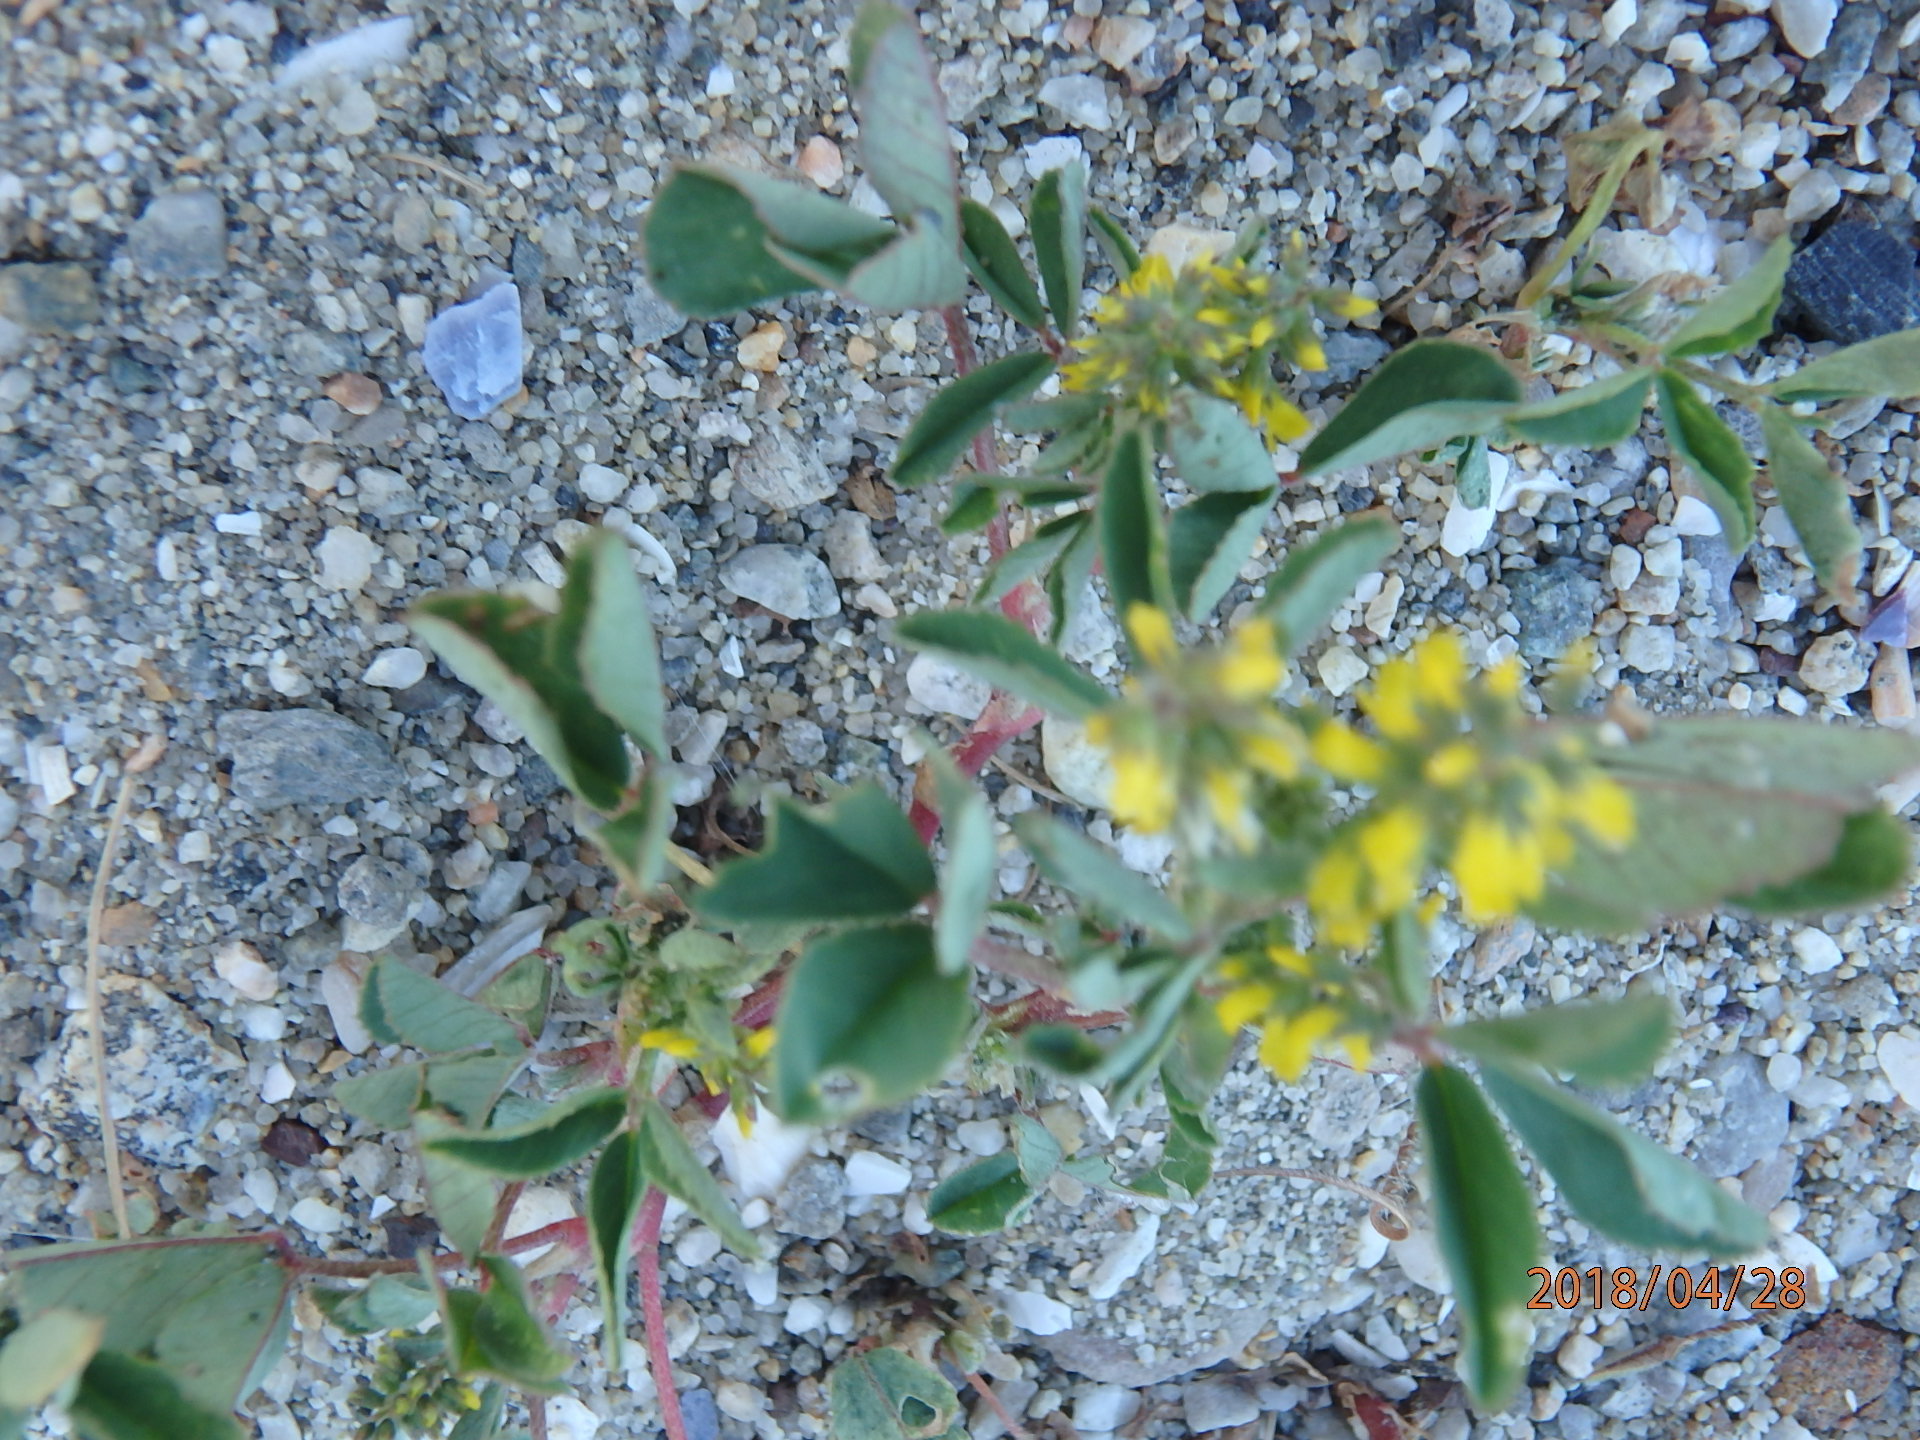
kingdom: Plantae
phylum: Tracheophyta
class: Magnoliopsida
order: Fabales
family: Fabaceae
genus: Melilotus
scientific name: Melilotus indicus
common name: Small melilot
